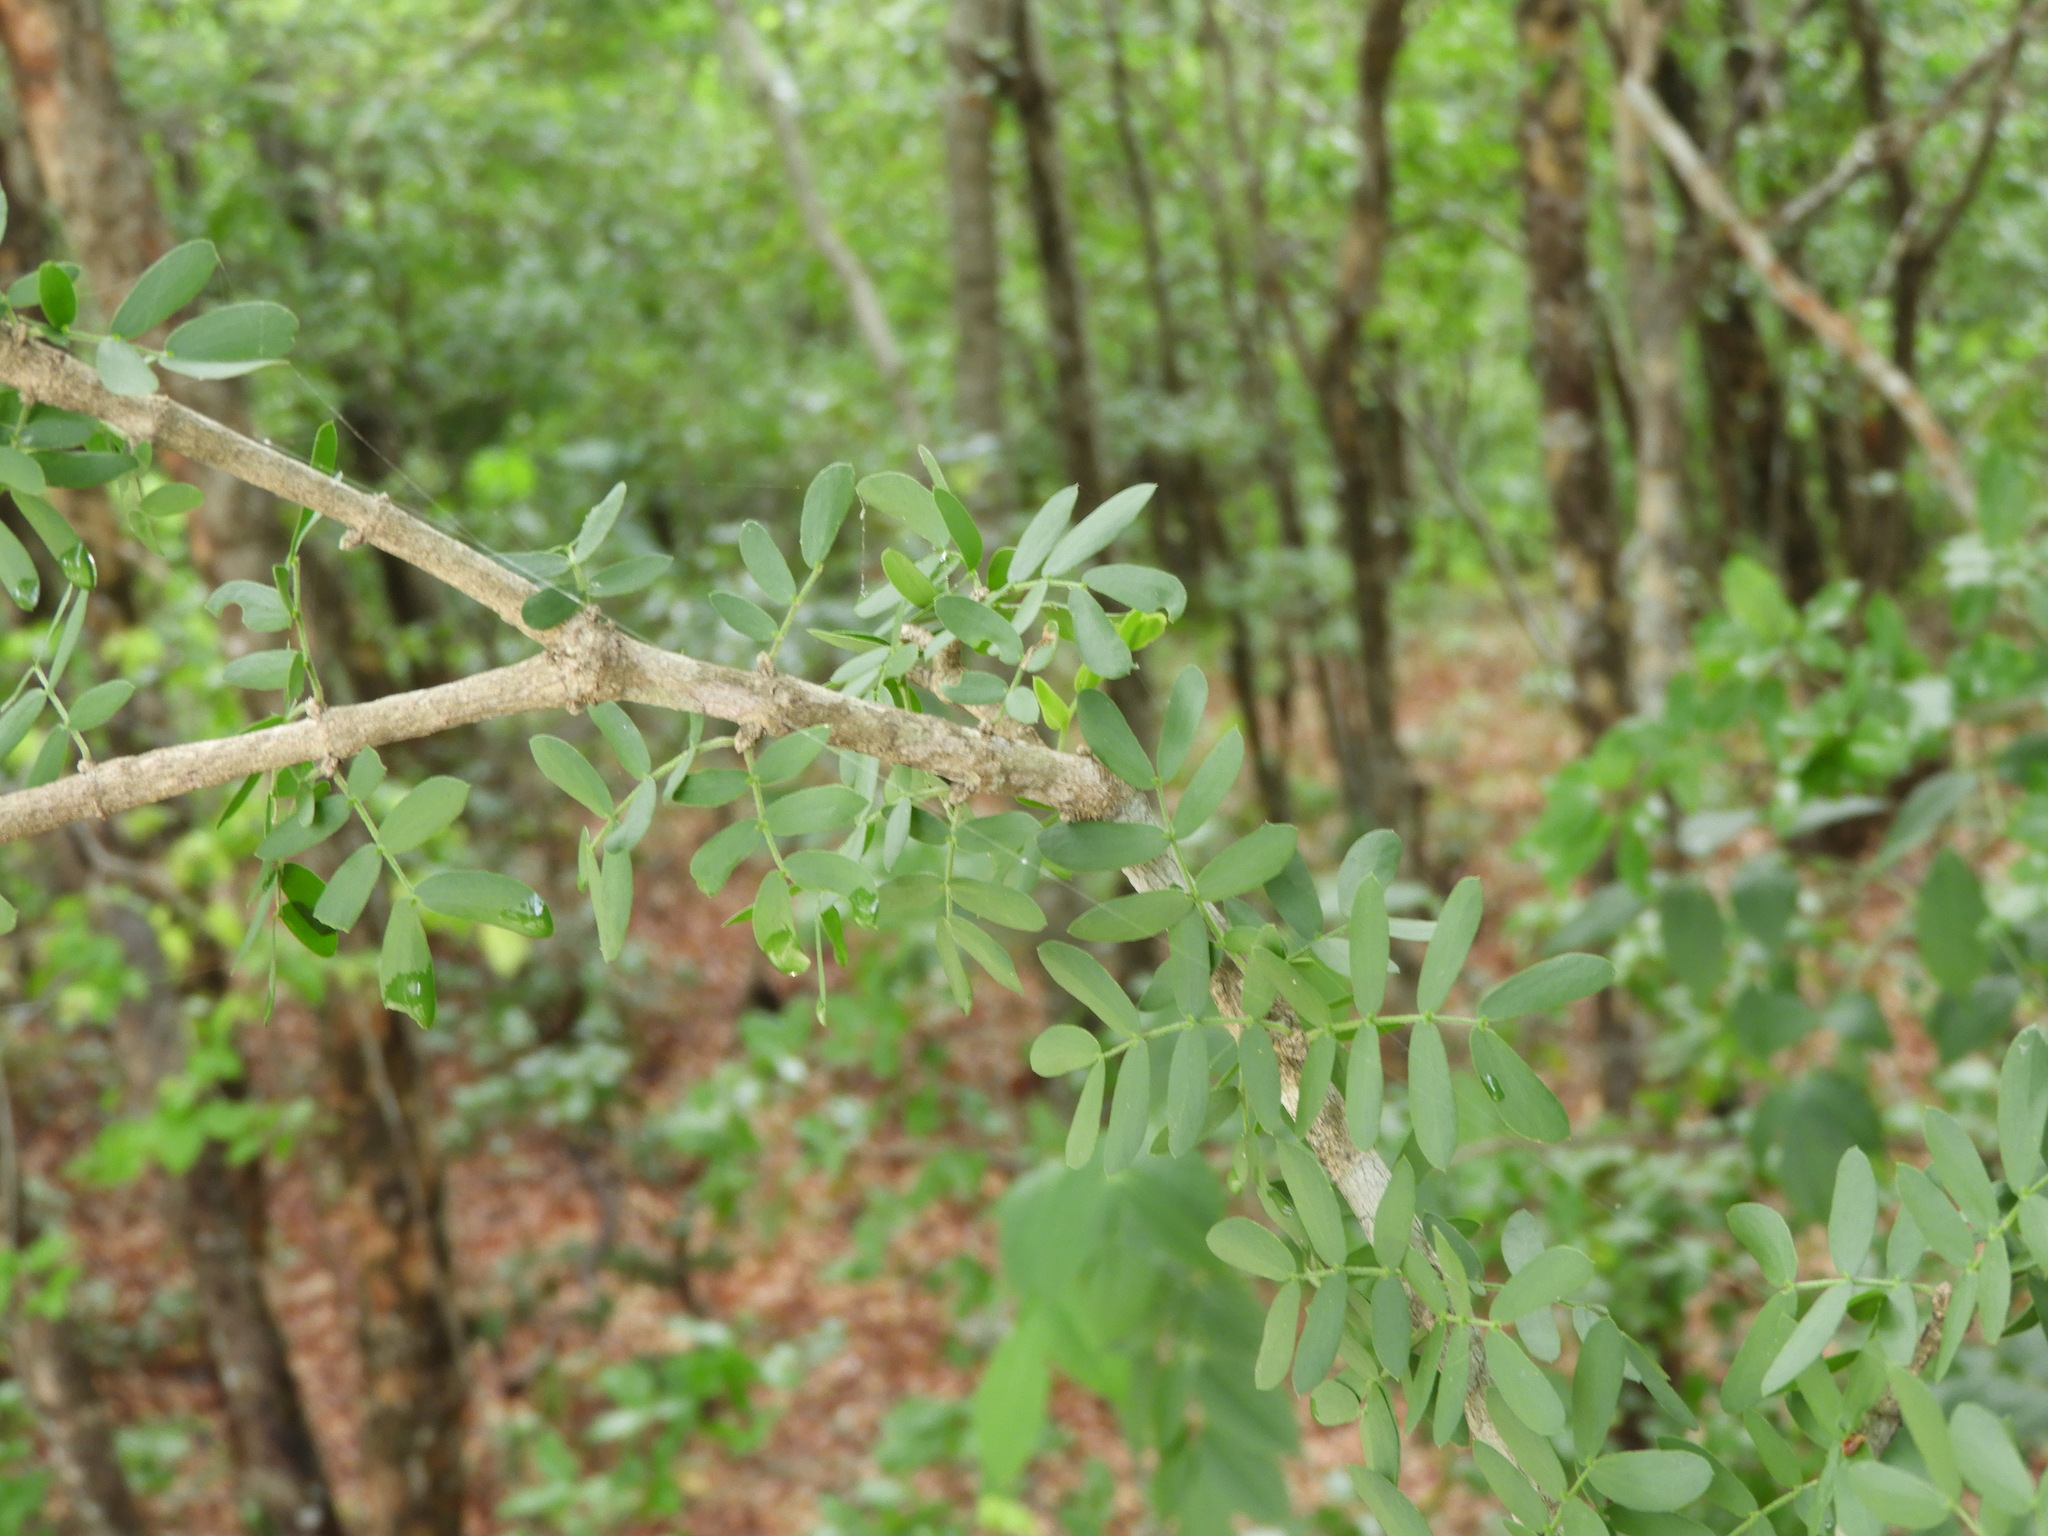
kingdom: Plantae
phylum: Tracheophyta
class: Magnoliopsida
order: Zygophyllales
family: Zygophyllaceae
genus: Guaiacum
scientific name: Guaiacum coulteri
